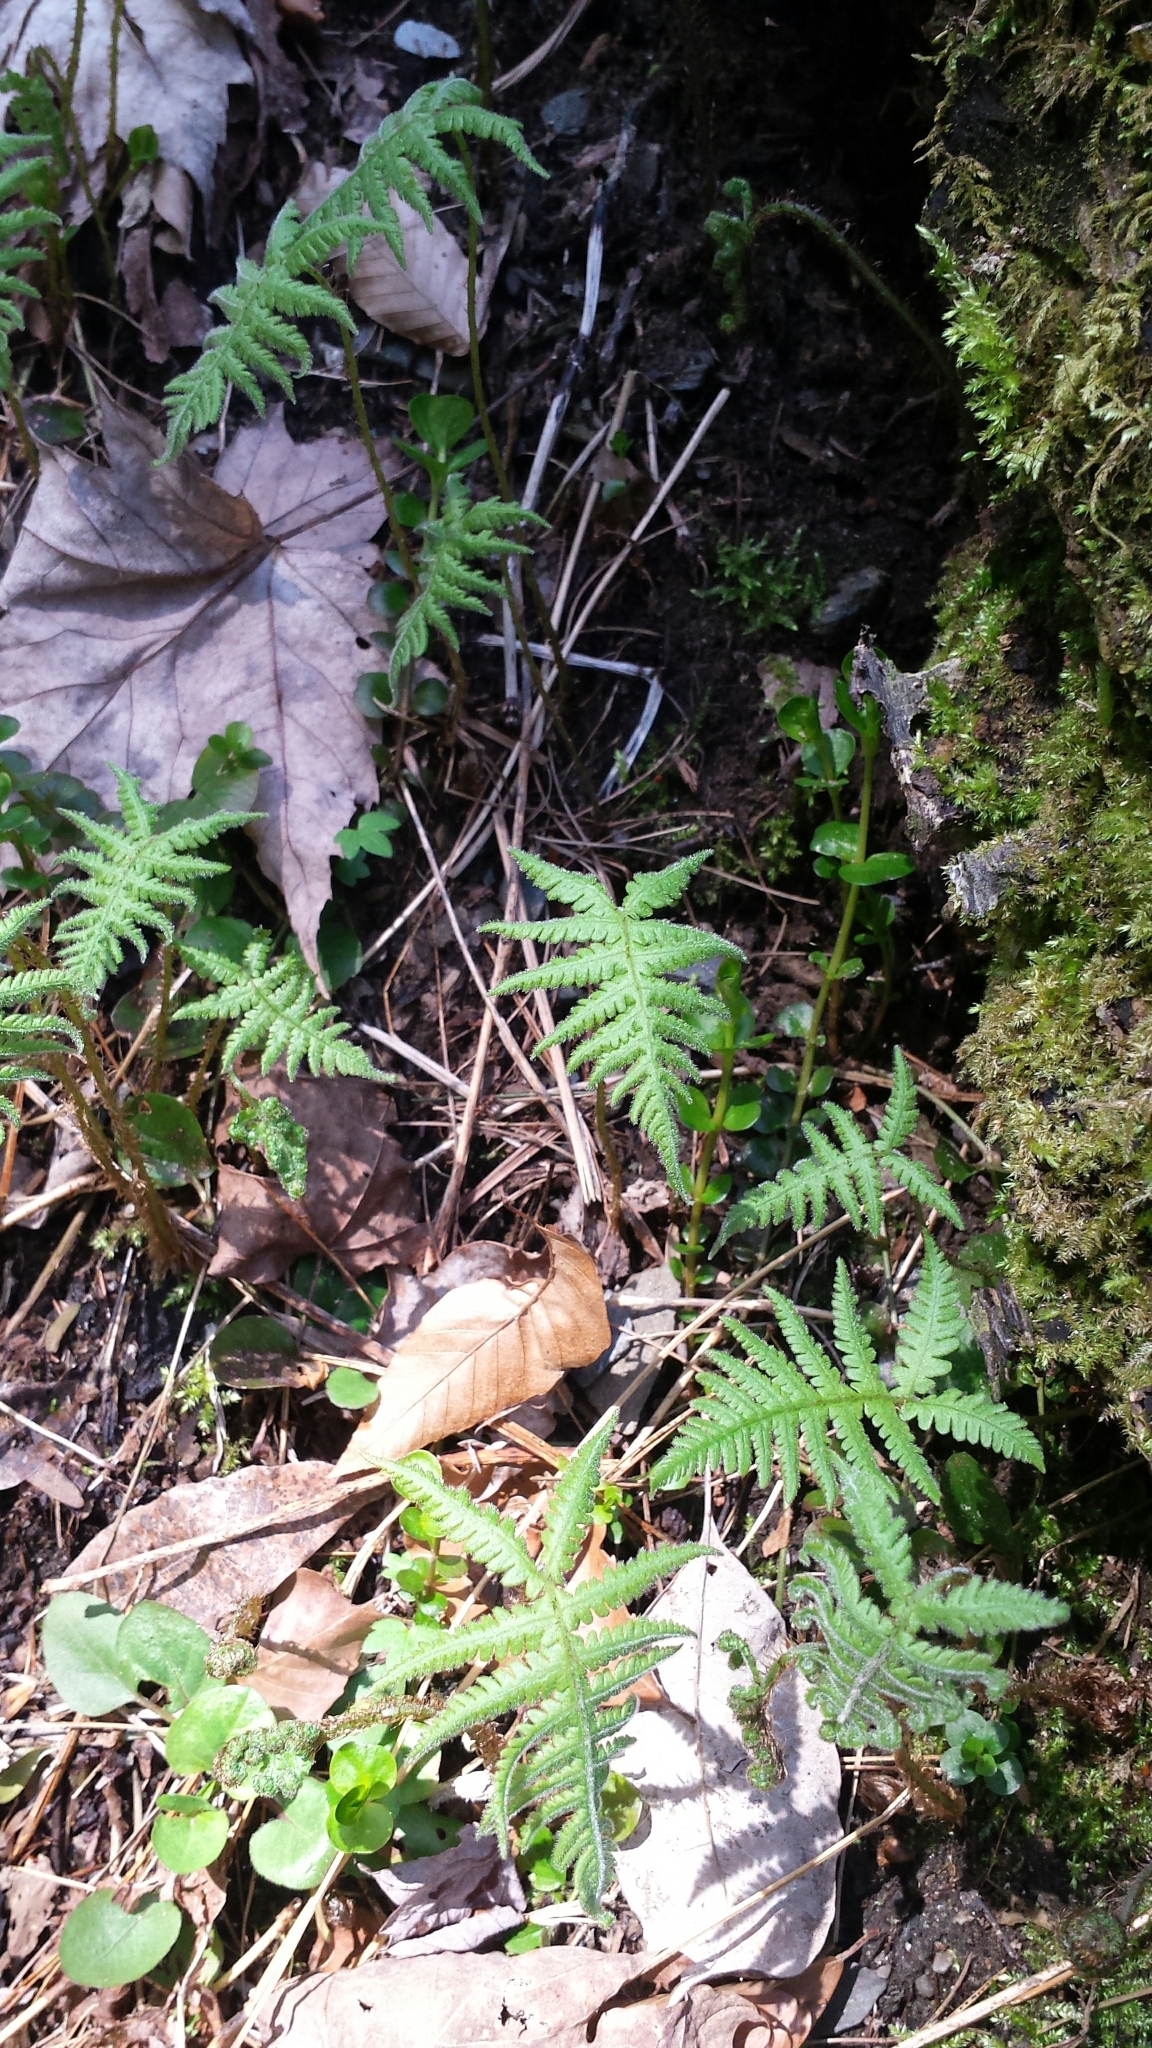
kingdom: Plantae
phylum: Tracheophyta
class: Polypodiopsida
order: Polypodiales
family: Thelypteridaceae
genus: Phegopteris
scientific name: Phegopteris connectilis
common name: Beech fern
